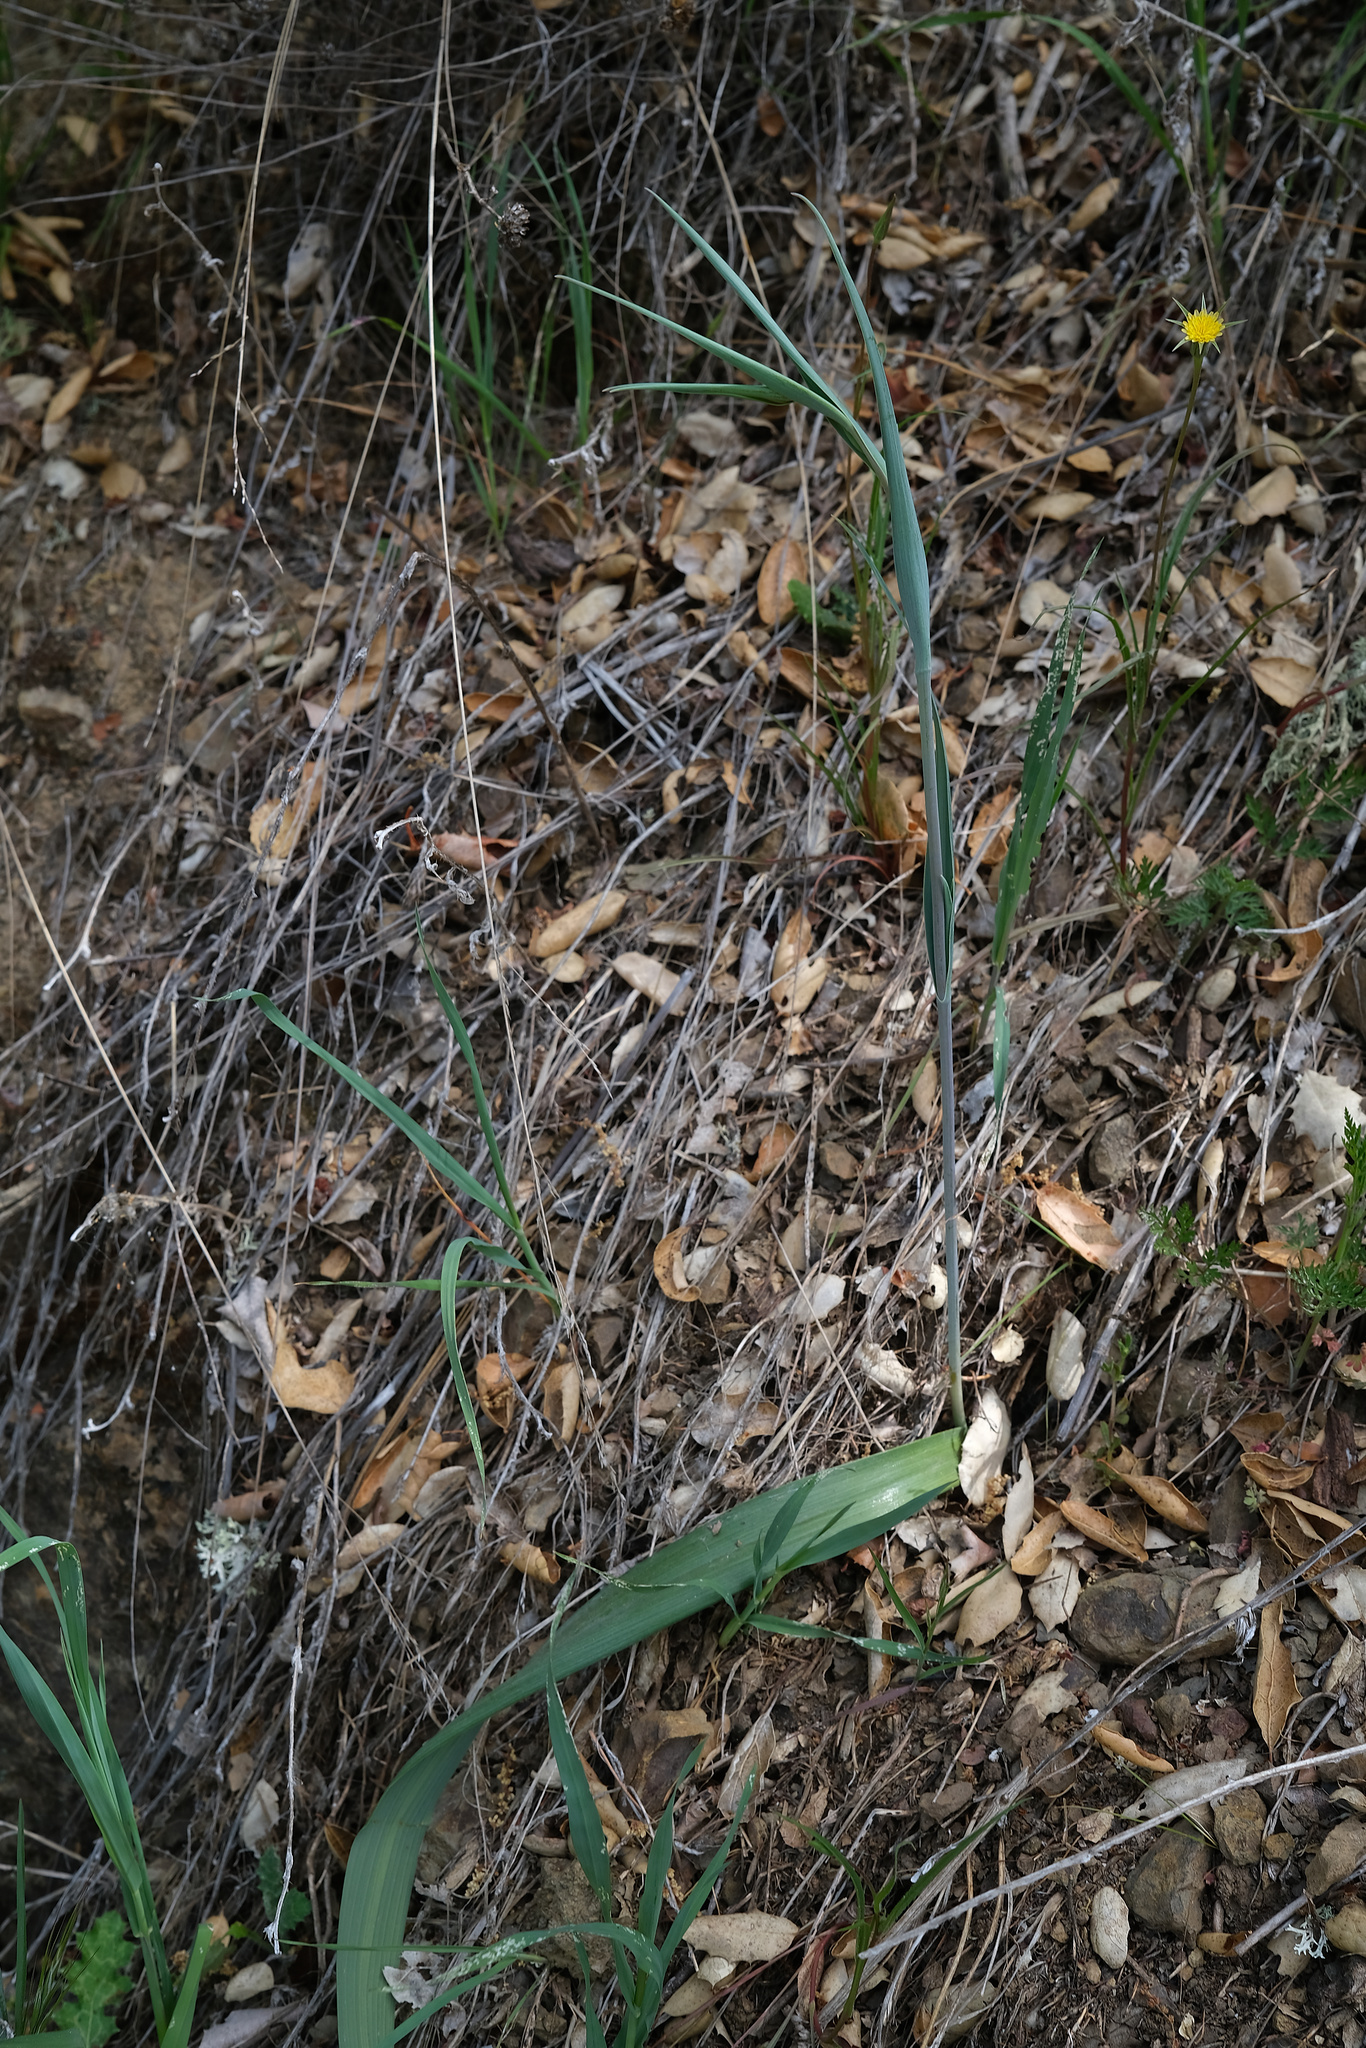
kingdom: Plantae
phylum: Tracheophyta
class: Liliopsida
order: Liliales
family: Liliaceae
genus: Calochortus
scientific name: Calochortus albus
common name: Fairy-lantern
